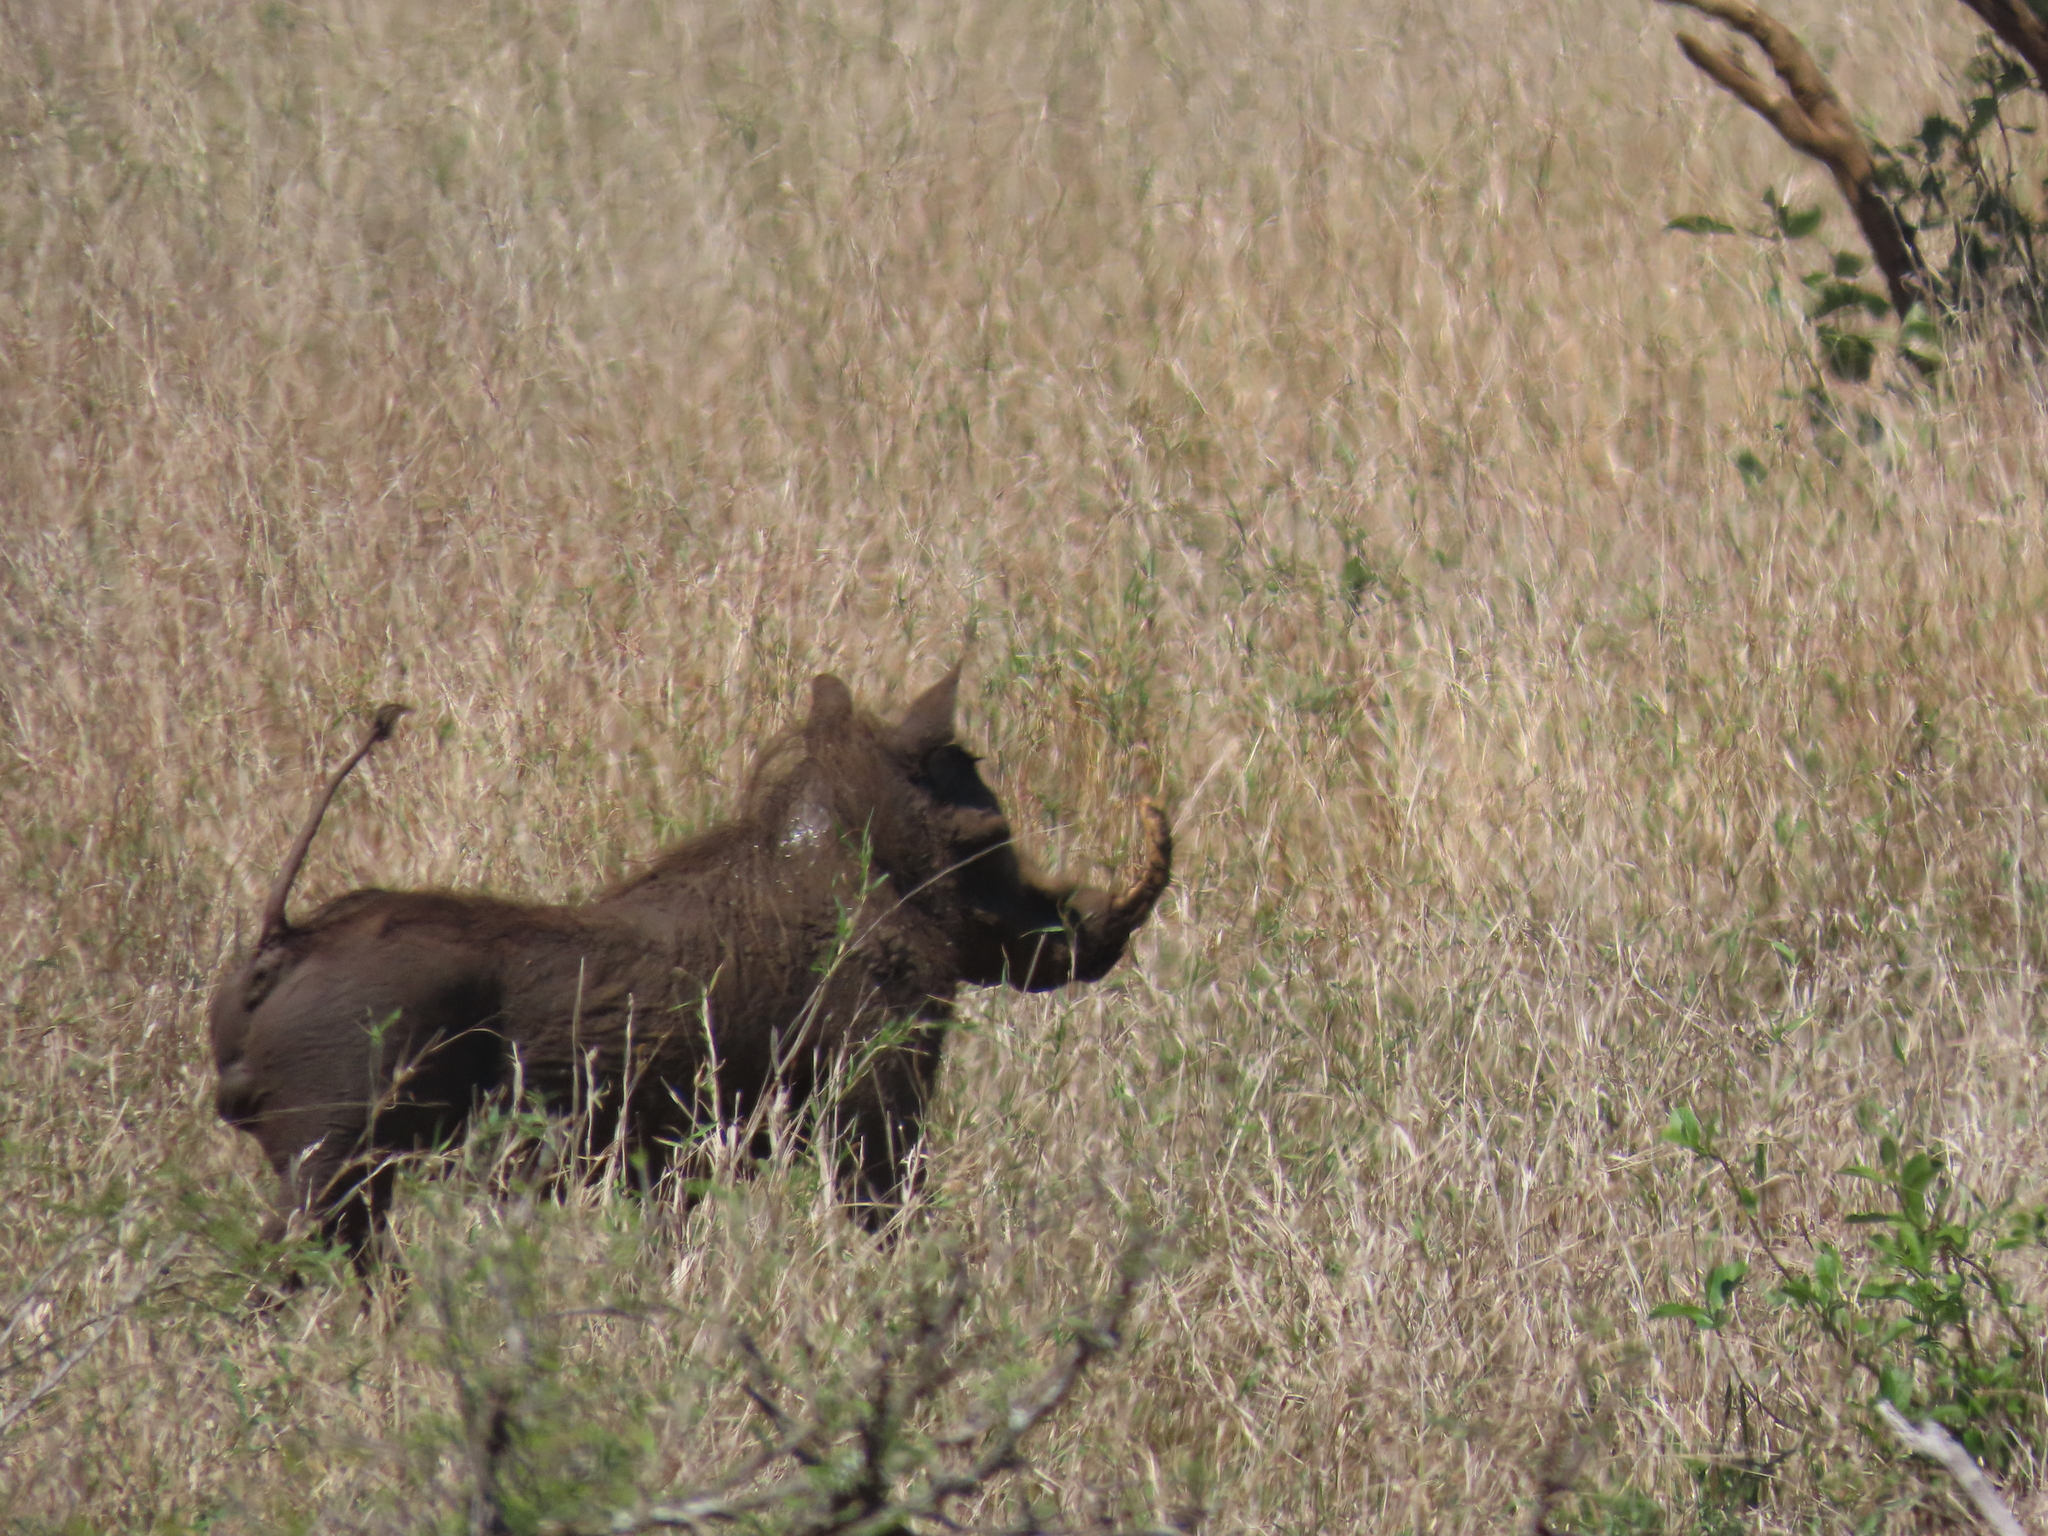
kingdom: Animalia
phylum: Chordata
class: Mammalia
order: Artiodactyla
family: Suidae
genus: Phacochoerus
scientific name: Phacochoerus africanus
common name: Common warthog
